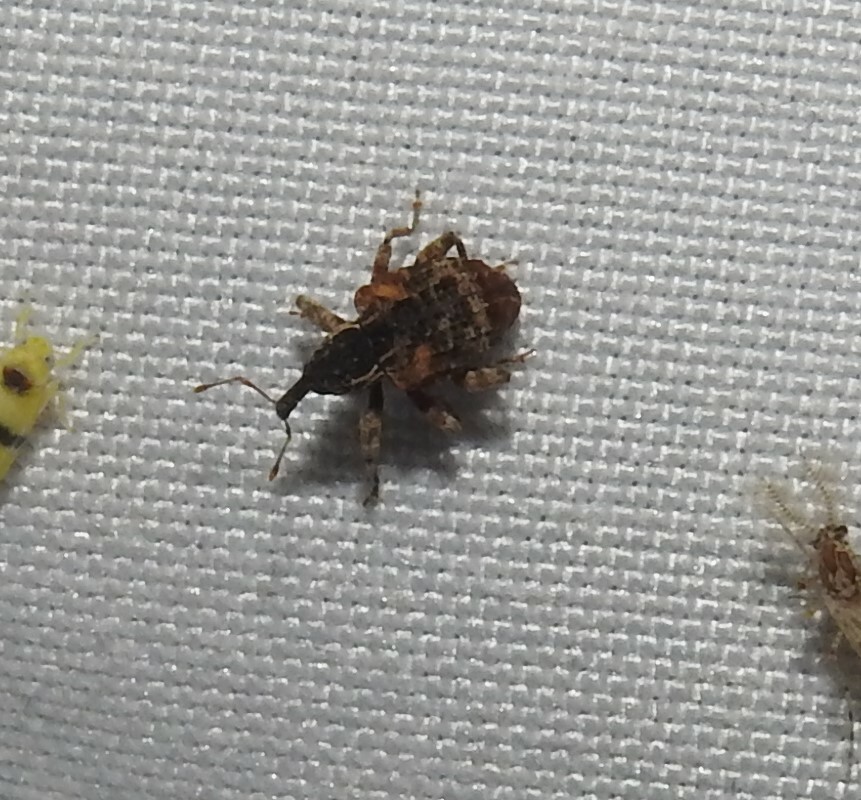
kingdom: Animalia
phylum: Arthropoda
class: Insecta
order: Coleoptera
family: Curculionidae
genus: Conotrachelus
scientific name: Conotrachelus anaglypticus
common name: Cambium curculio
